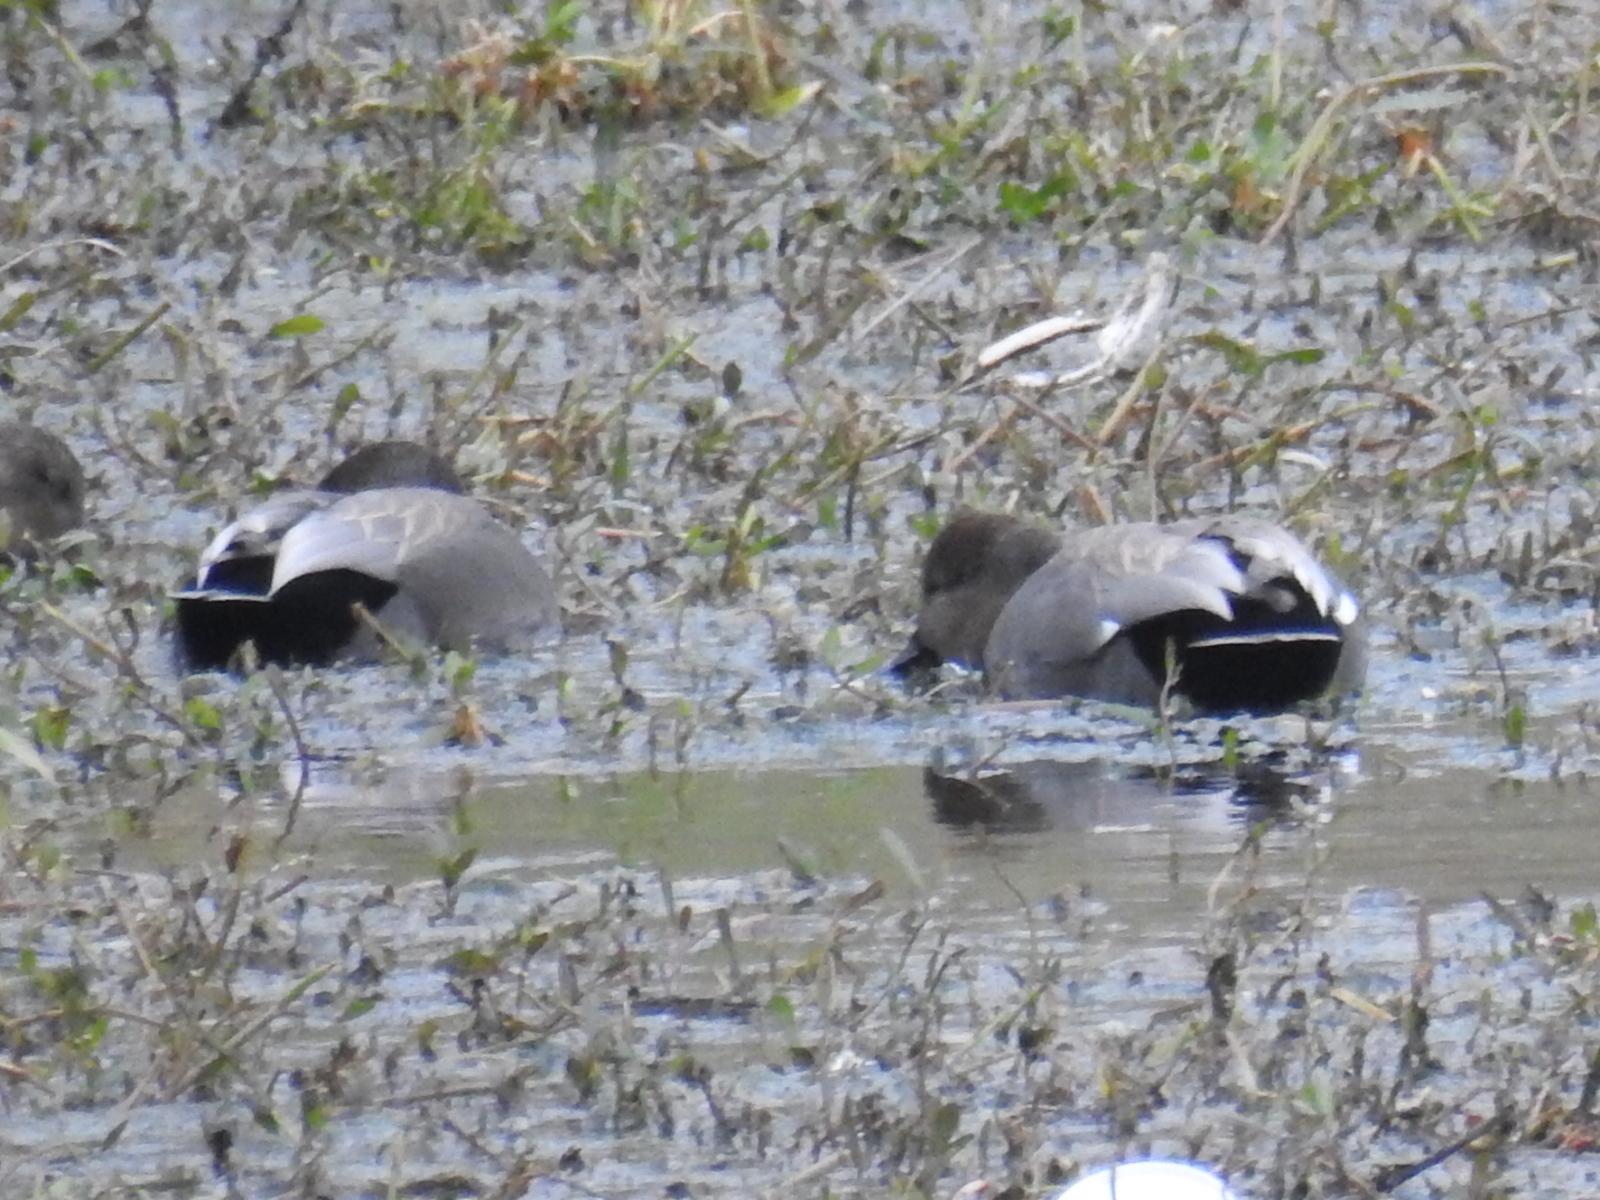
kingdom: Animalia
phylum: Chordata
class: Aves
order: Anseriformes
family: Anatidae
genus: Mareca
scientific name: Mareca strepera
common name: Gadwall
